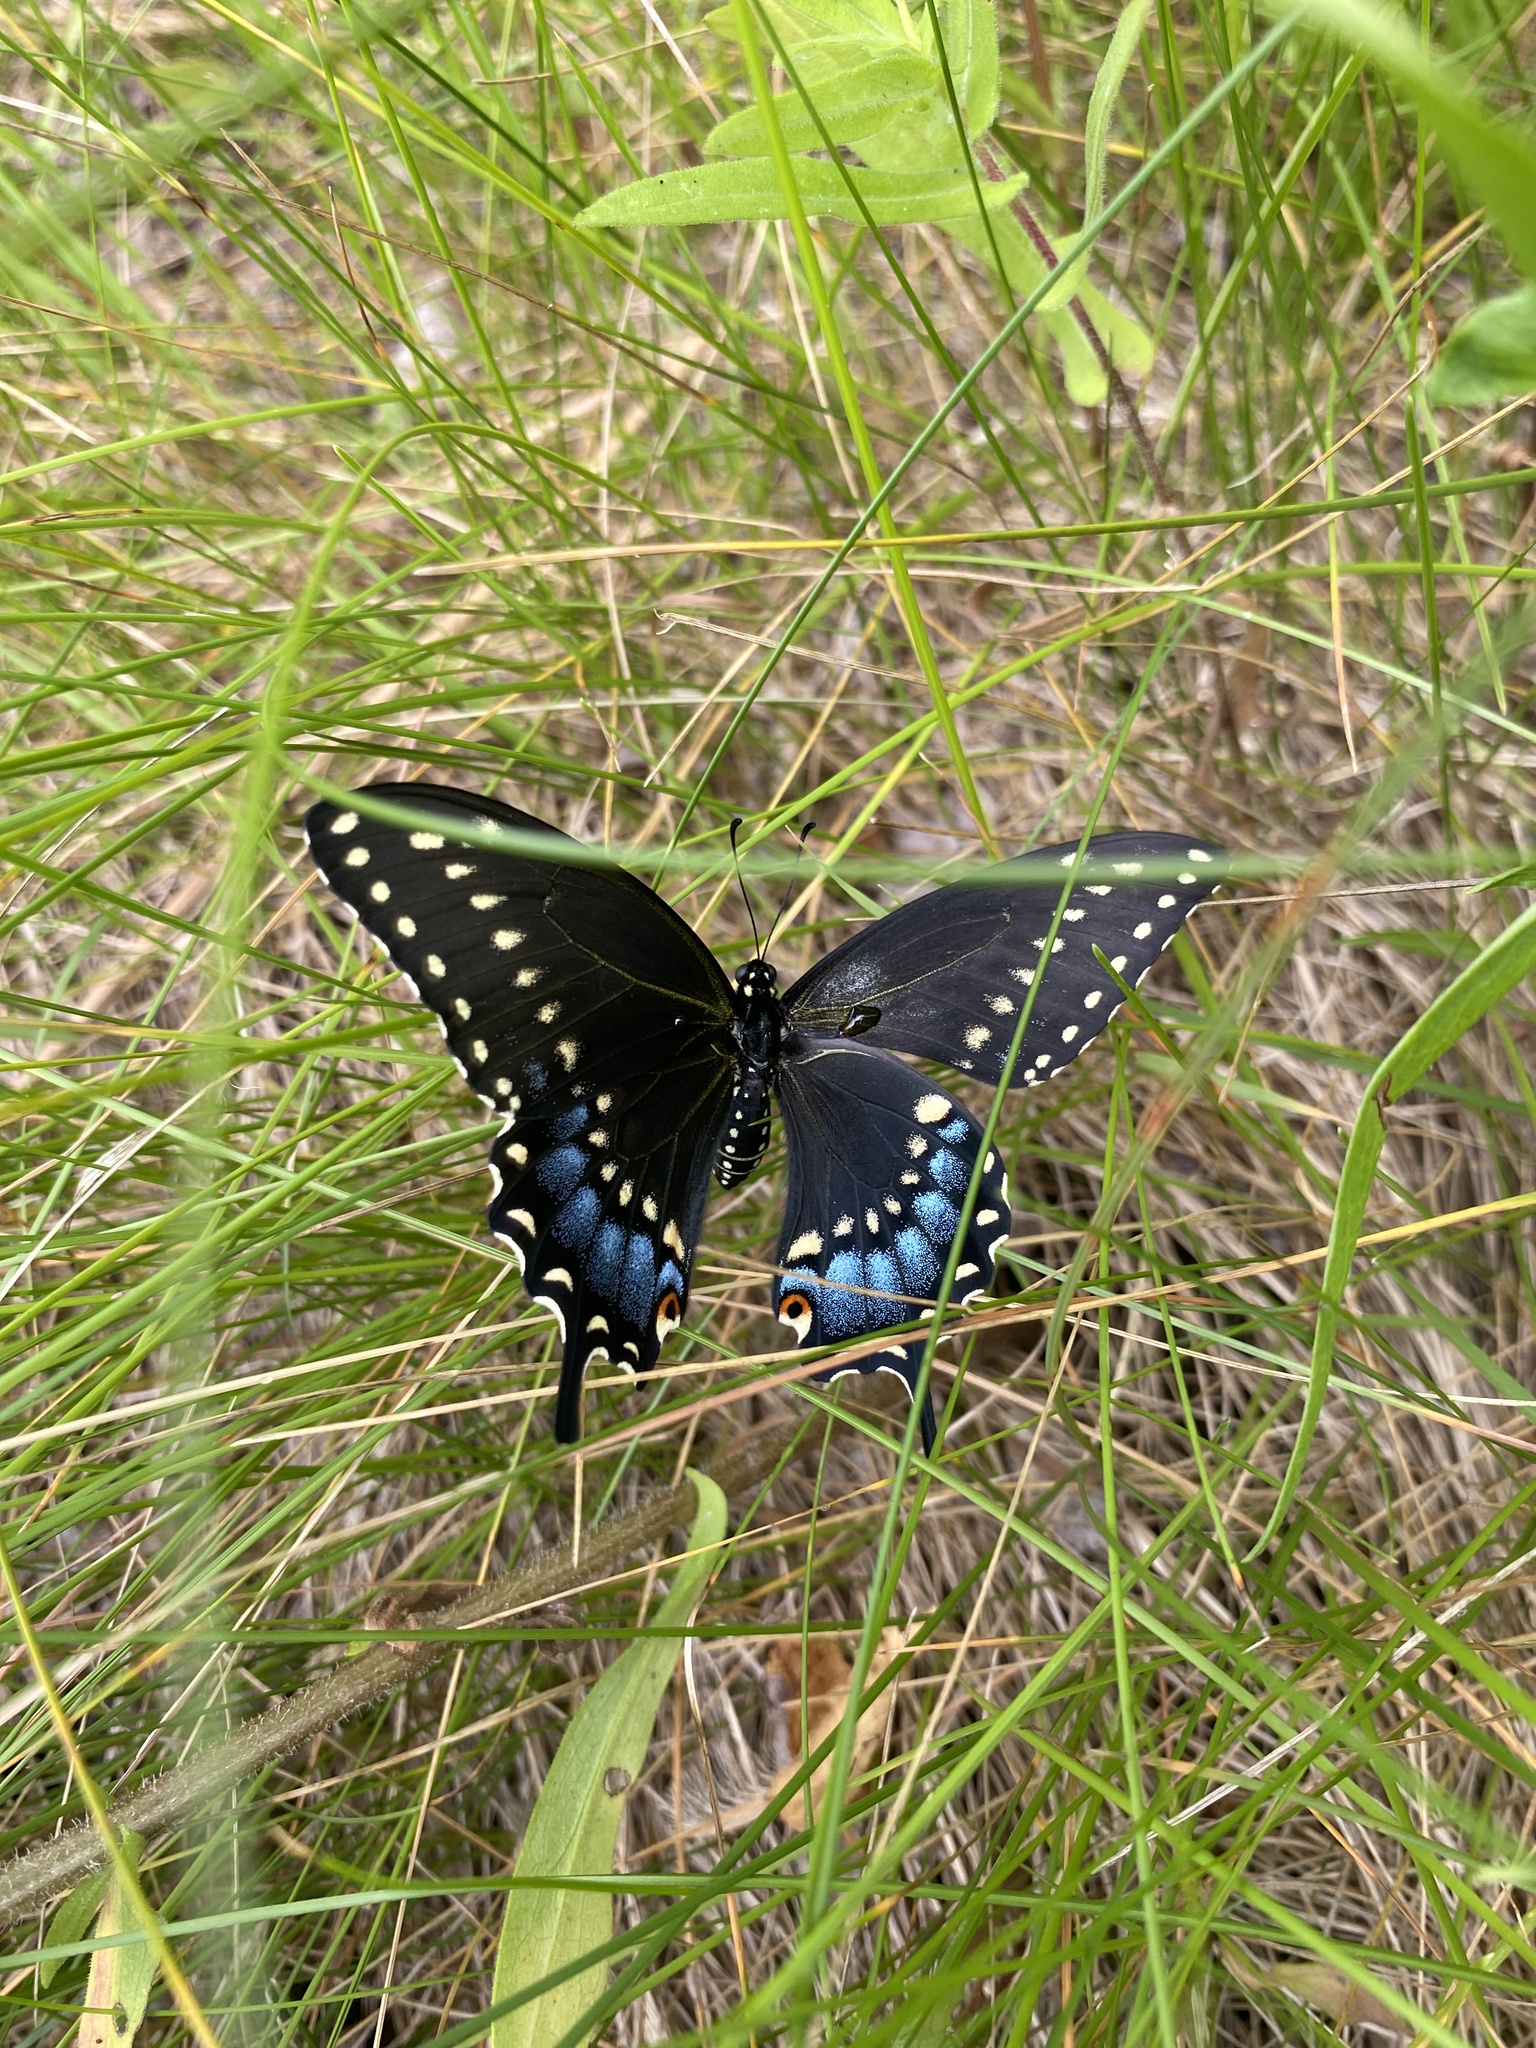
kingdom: Animalia
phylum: Arthropoda
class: Insecta
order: Lepidoptera
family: Papilionidae
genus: Papilio
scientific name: Papilio polyxenes
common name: Black swallowtail
